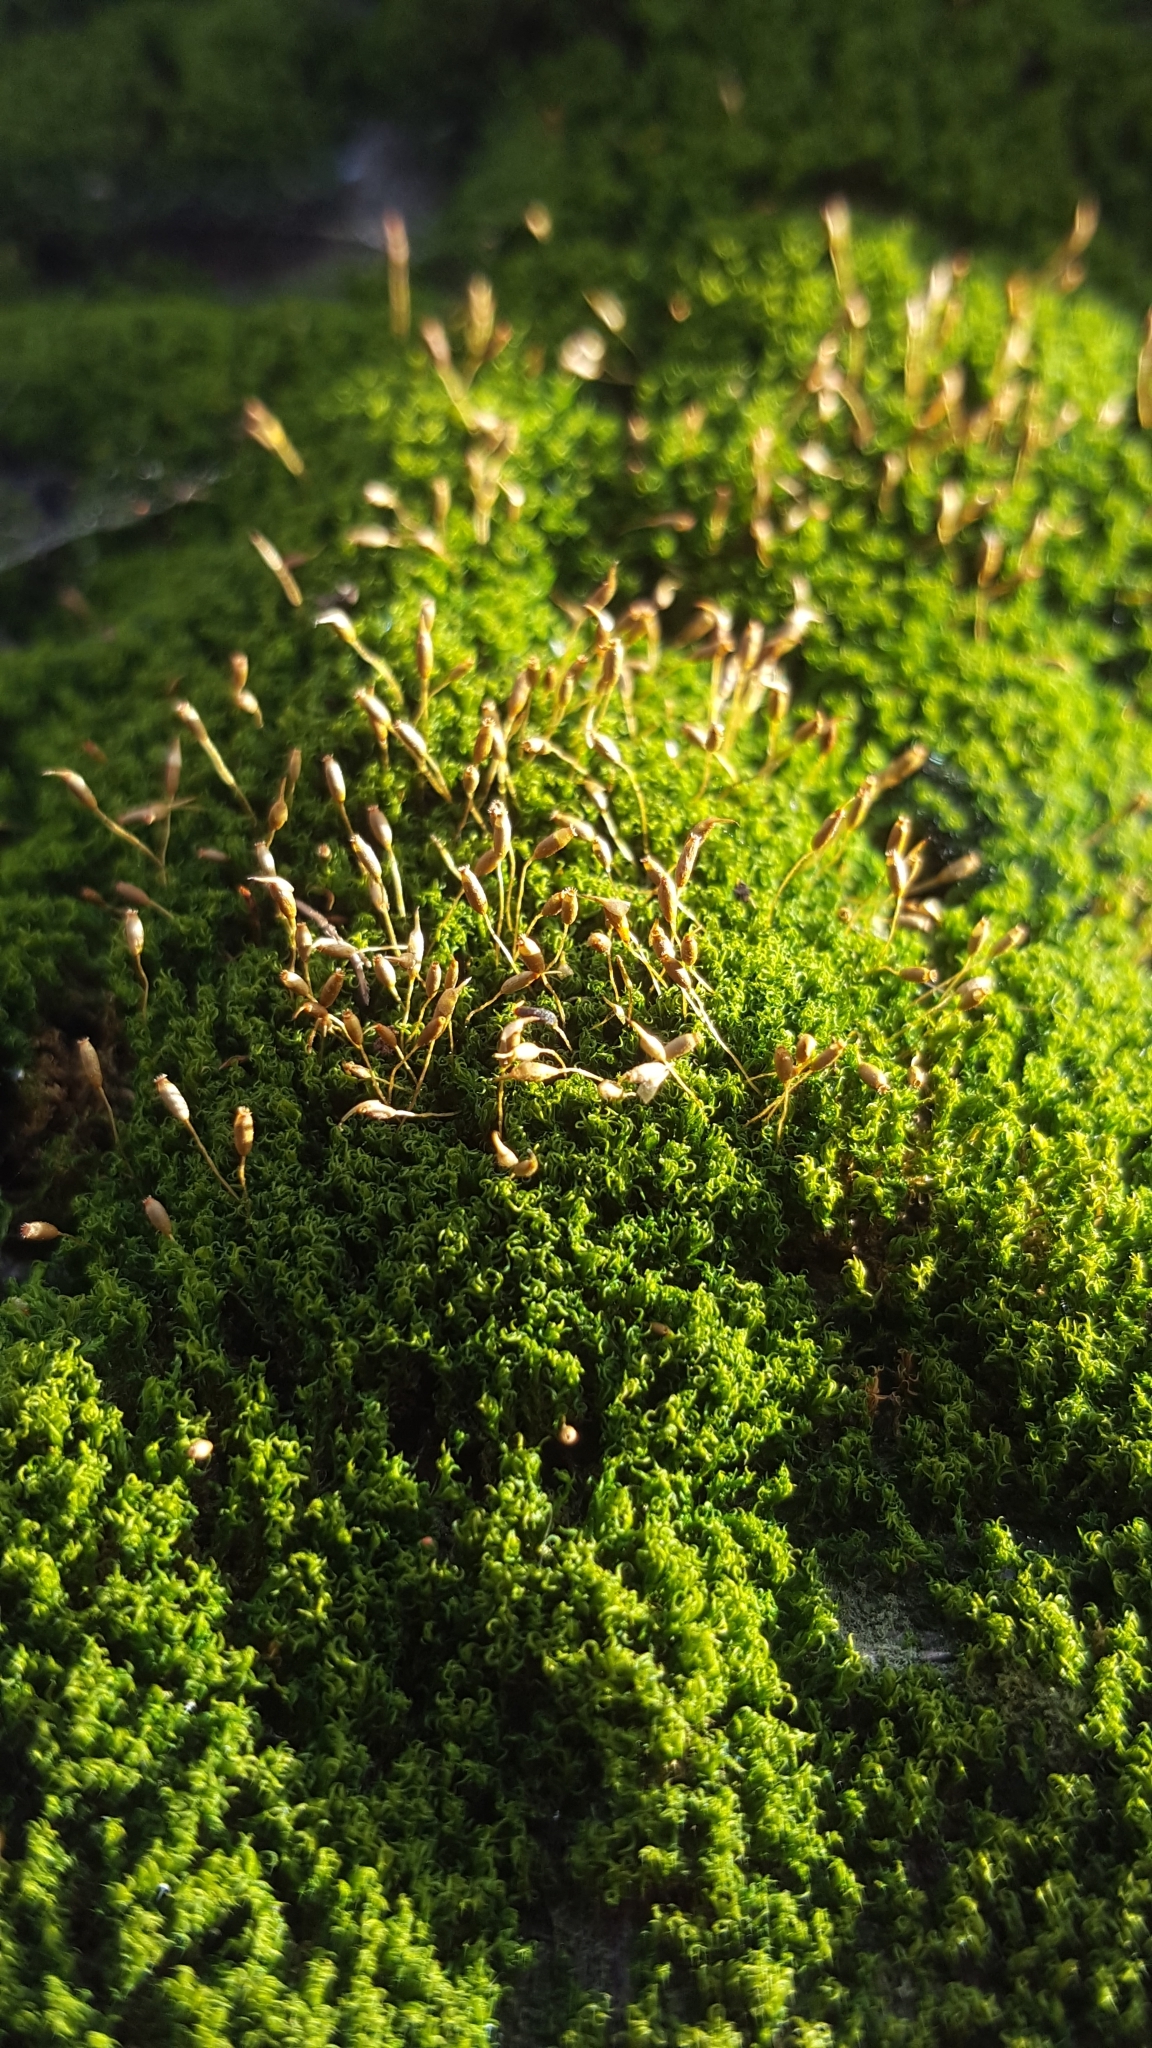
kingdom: Plantae
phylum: Bryophyta
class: Bryopsida
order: Dicranales
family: Rhabdoweisiaceae
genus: Dicranoweisia
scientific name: Dicranoweisia cirrata
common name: Common pincushion
